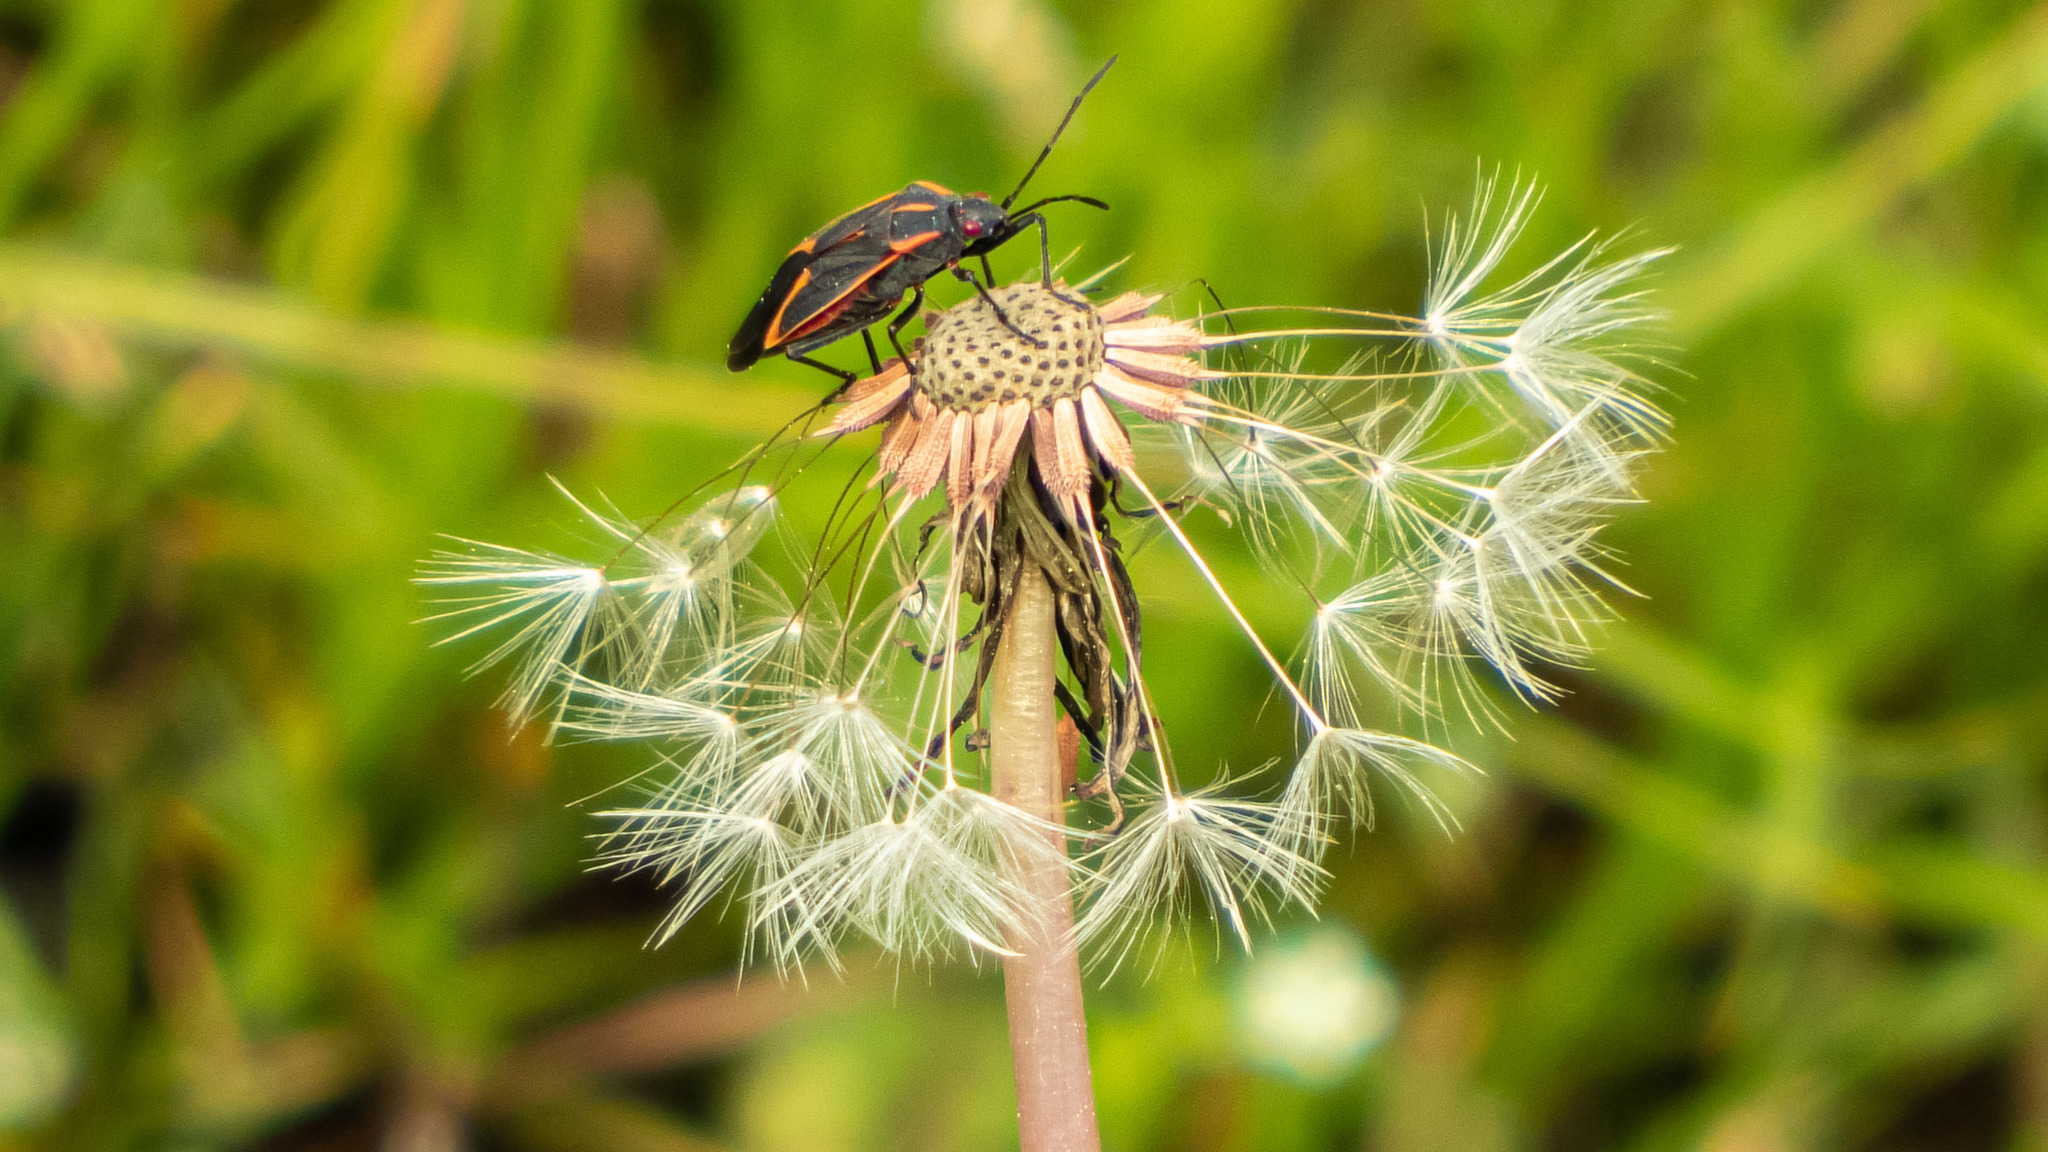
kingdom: Animalia
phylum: Arthropoda
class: Insecta
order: Hemiptera
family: Rhopalidae
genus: Boisea
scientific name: Boisea trivittata
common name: Boxelder bug
